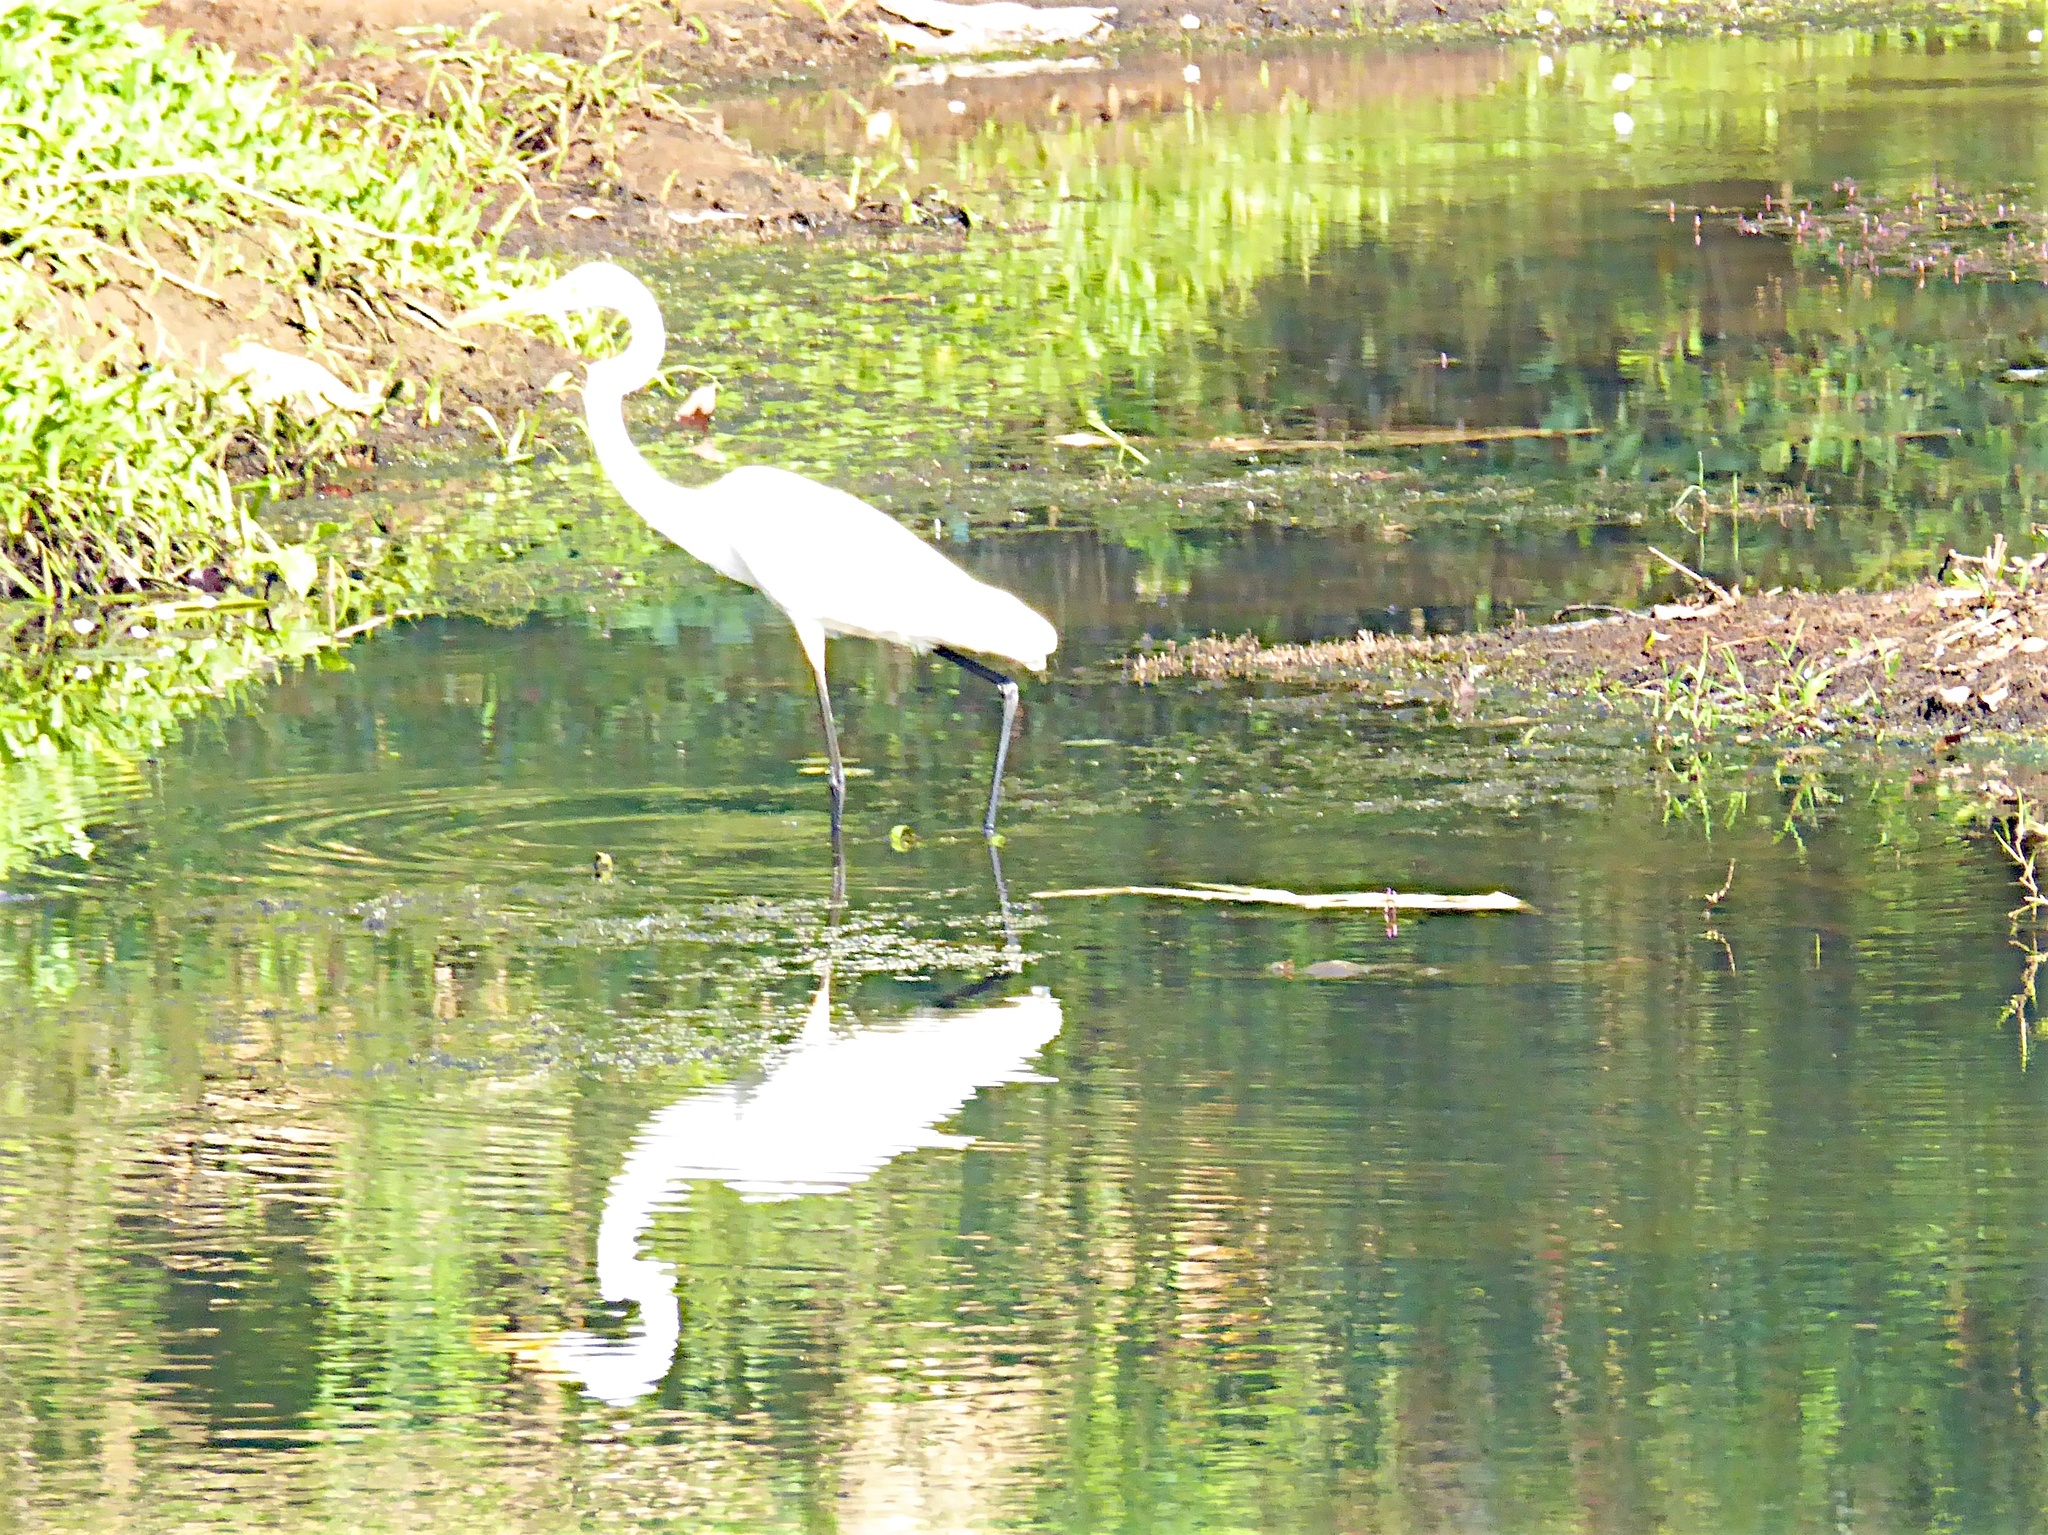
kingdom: Animalia
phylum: Chordata
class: Aves
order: Pelecaniformes
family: Ardeidae
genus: Ardea
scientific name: Ardea alba
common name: Great egret
